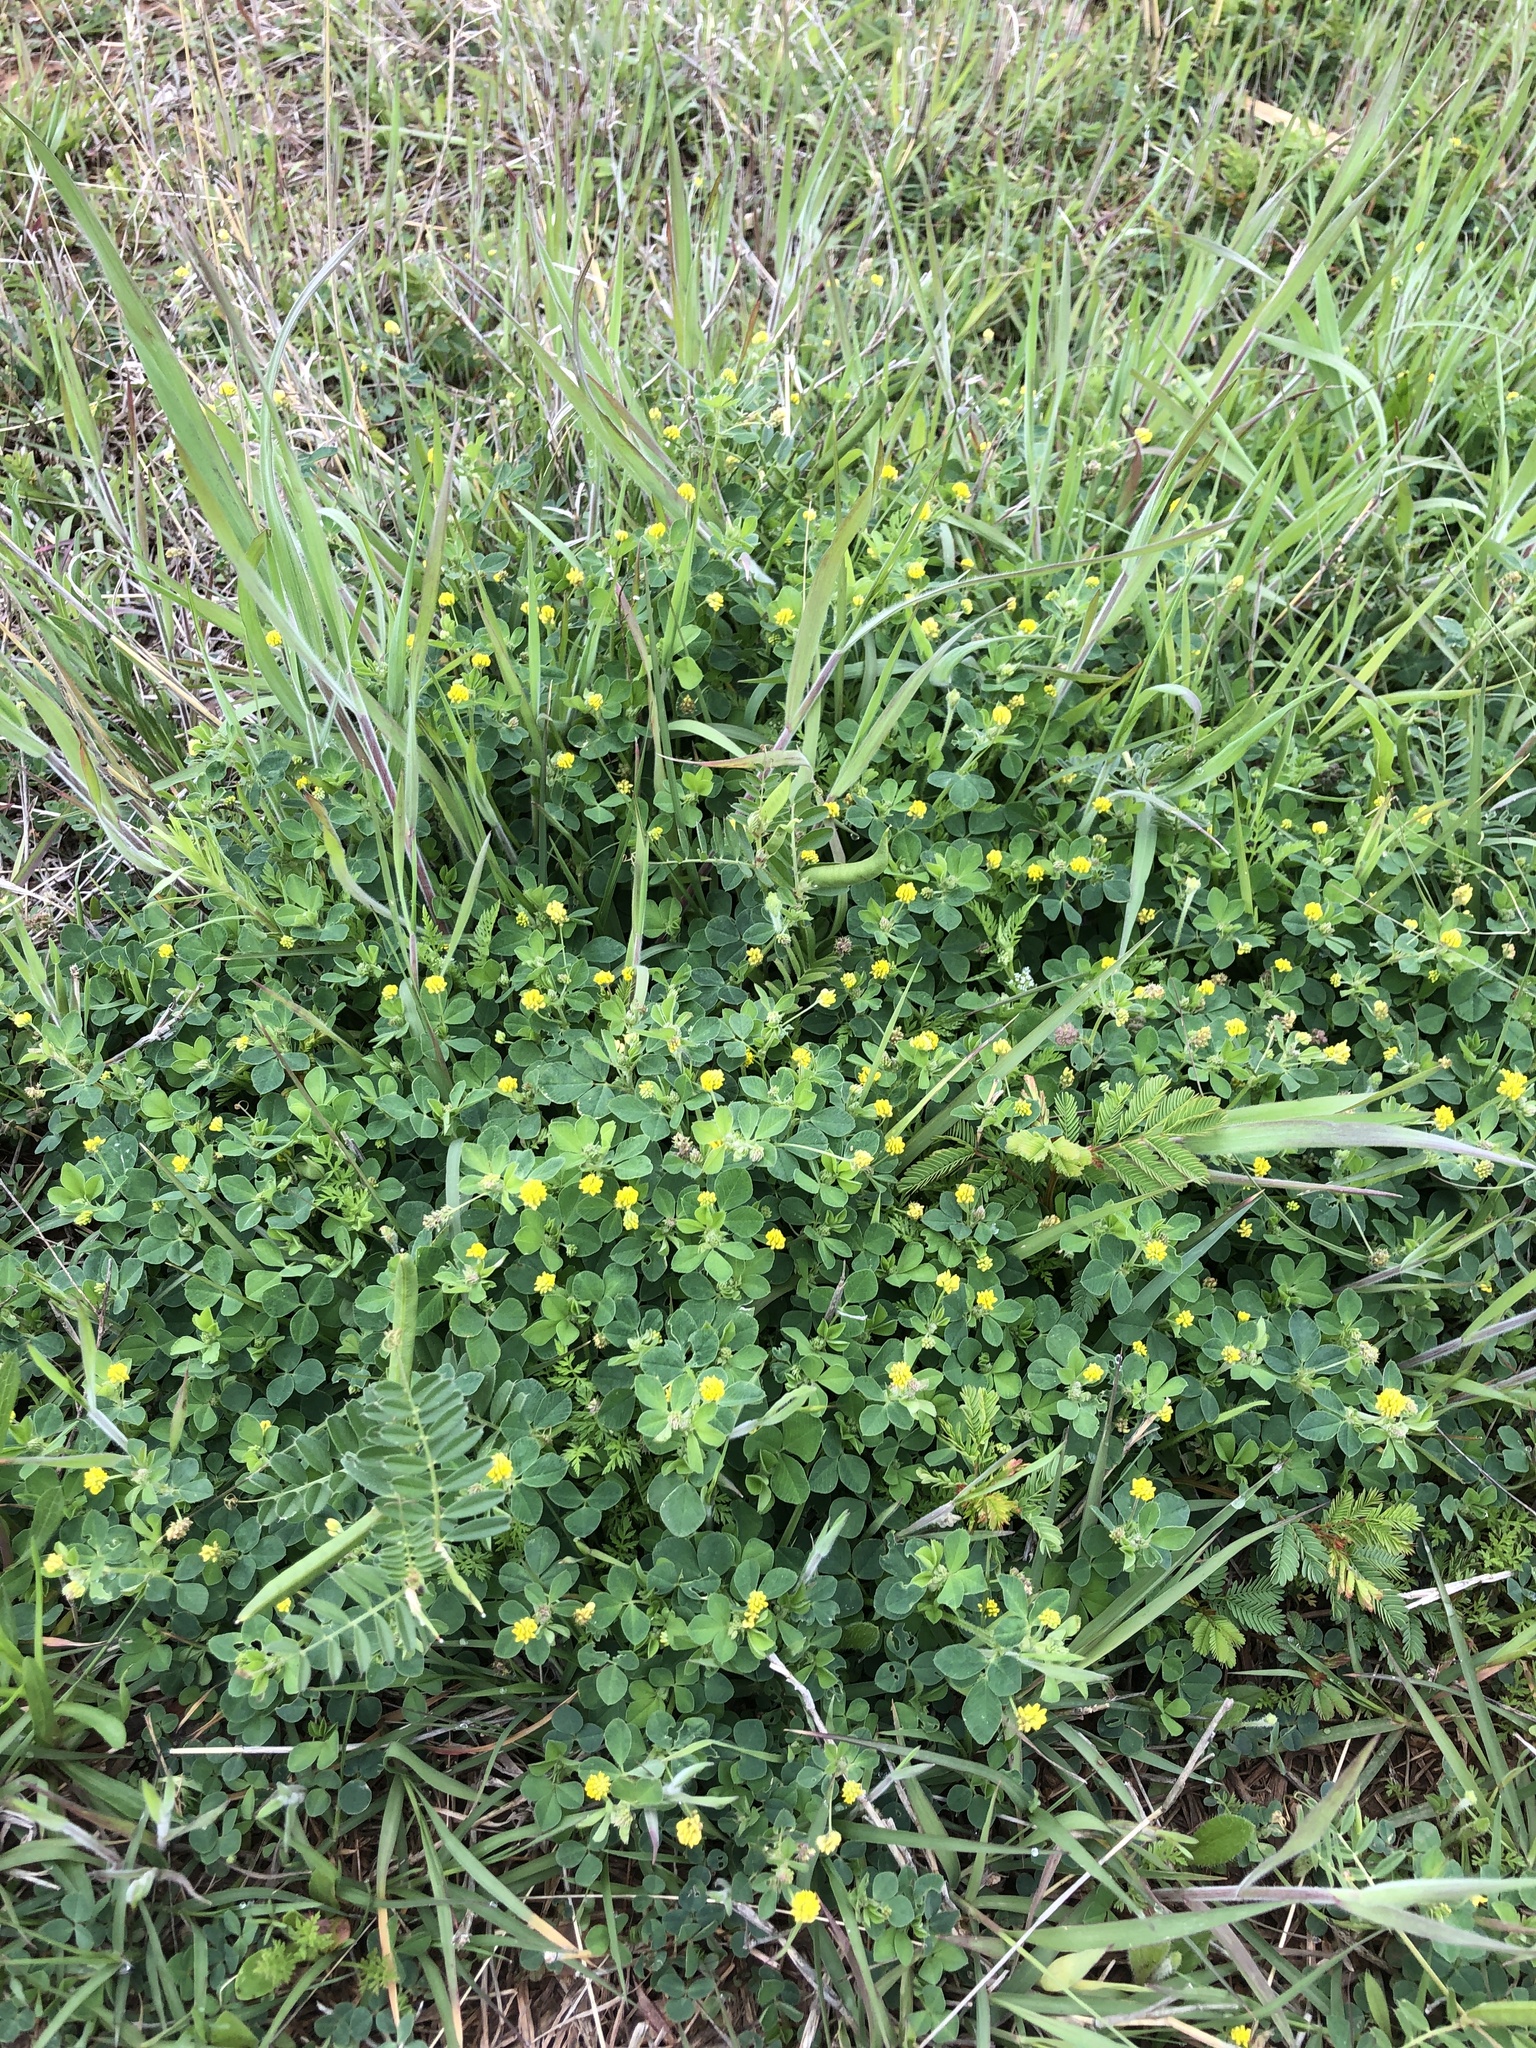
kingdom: Plantae
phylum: Tracheophyta
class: Magnoliopsida
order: Fabales
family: Fabaceae
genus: Medicago
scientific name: Medicago lupulina
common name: Black medick
